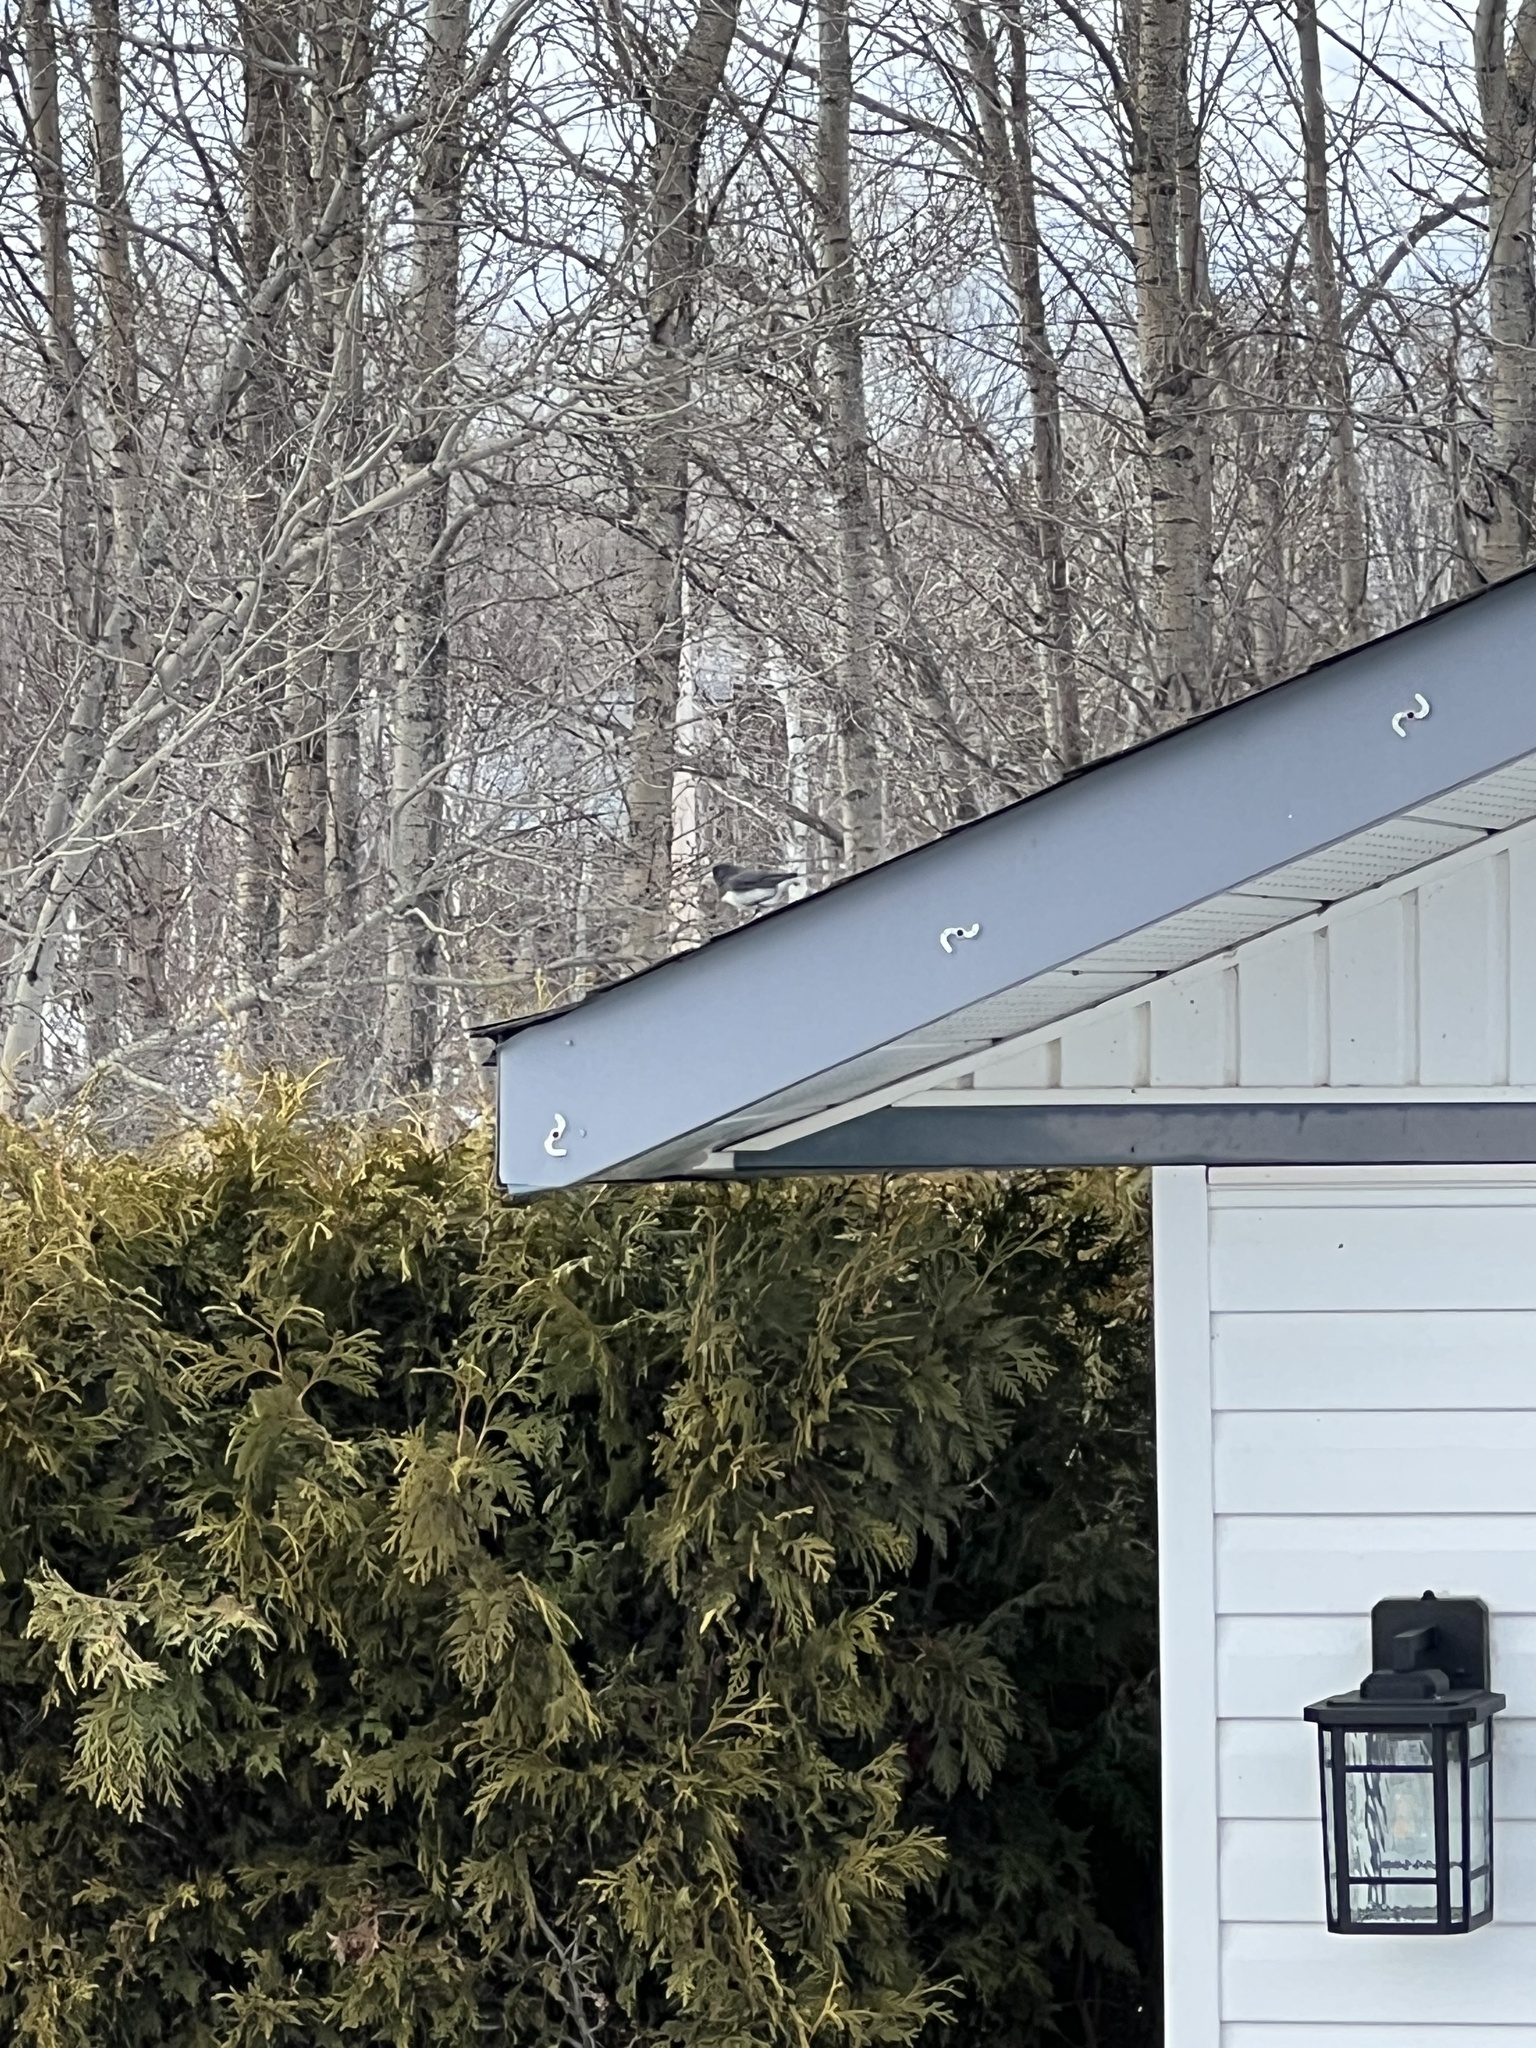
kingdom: Animalia
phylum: Chordata
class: Aves
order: Passeriformes
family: Passerellidae
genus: Junco
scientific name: Junco hyemalis
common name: Dark-eyed junco
